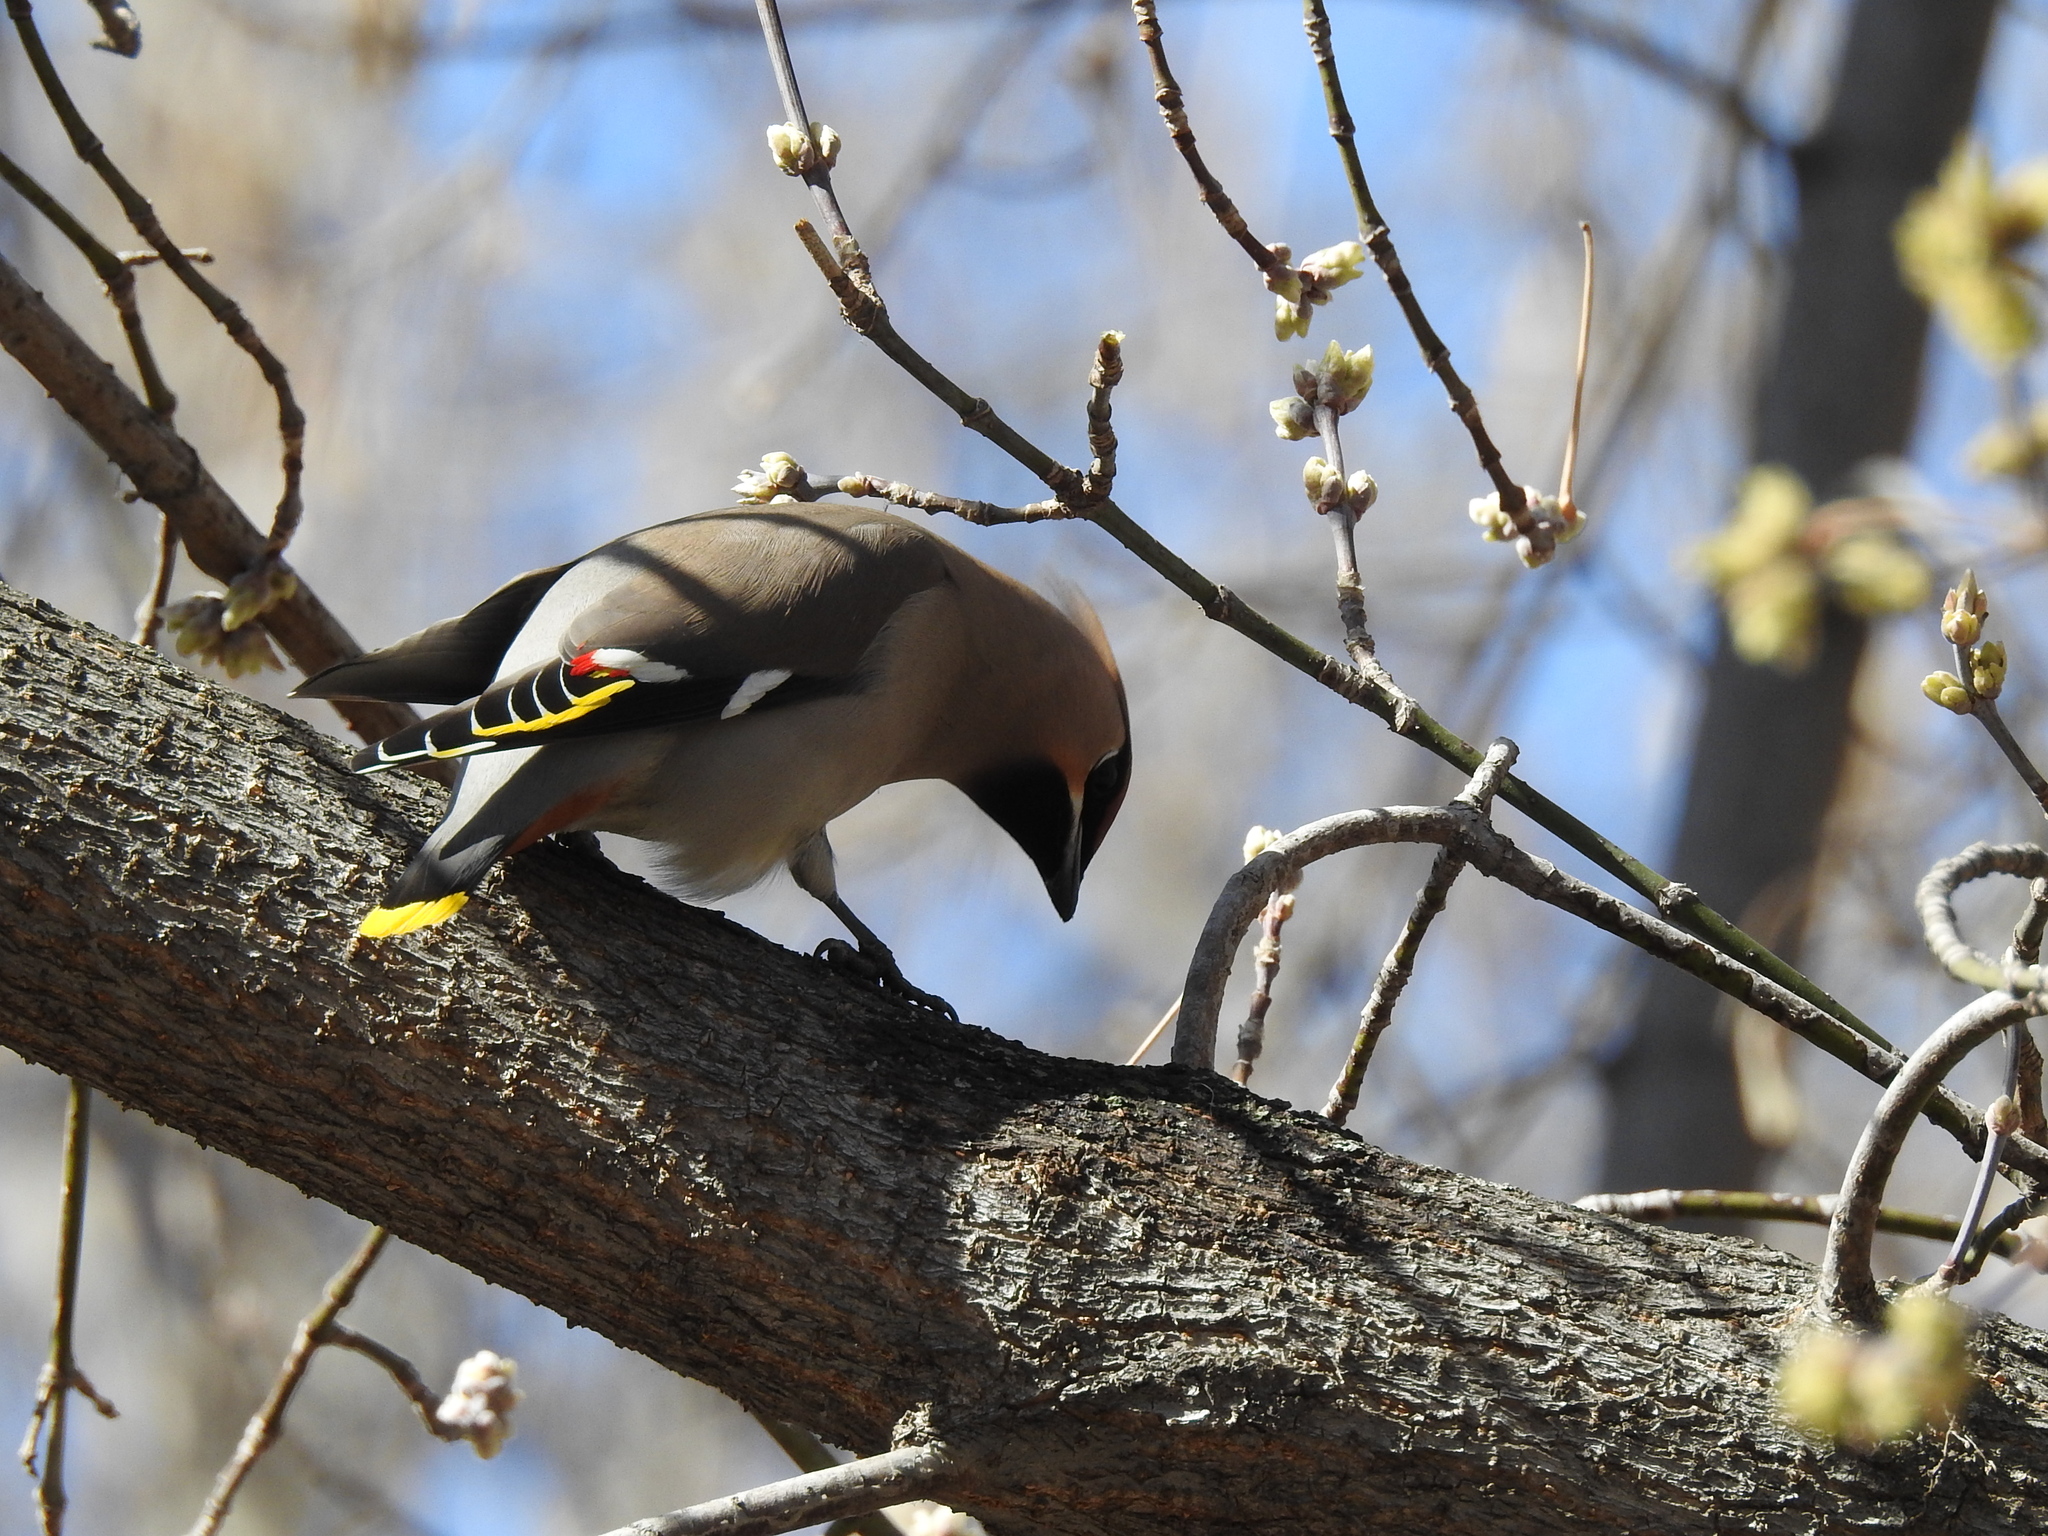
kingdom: Animalia
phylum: Chordata
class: Aves
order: Passeriformes
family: Bombycillidae
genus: Bombycilla
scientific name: Bombycilla garrulus
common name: Bohemian waxwing
